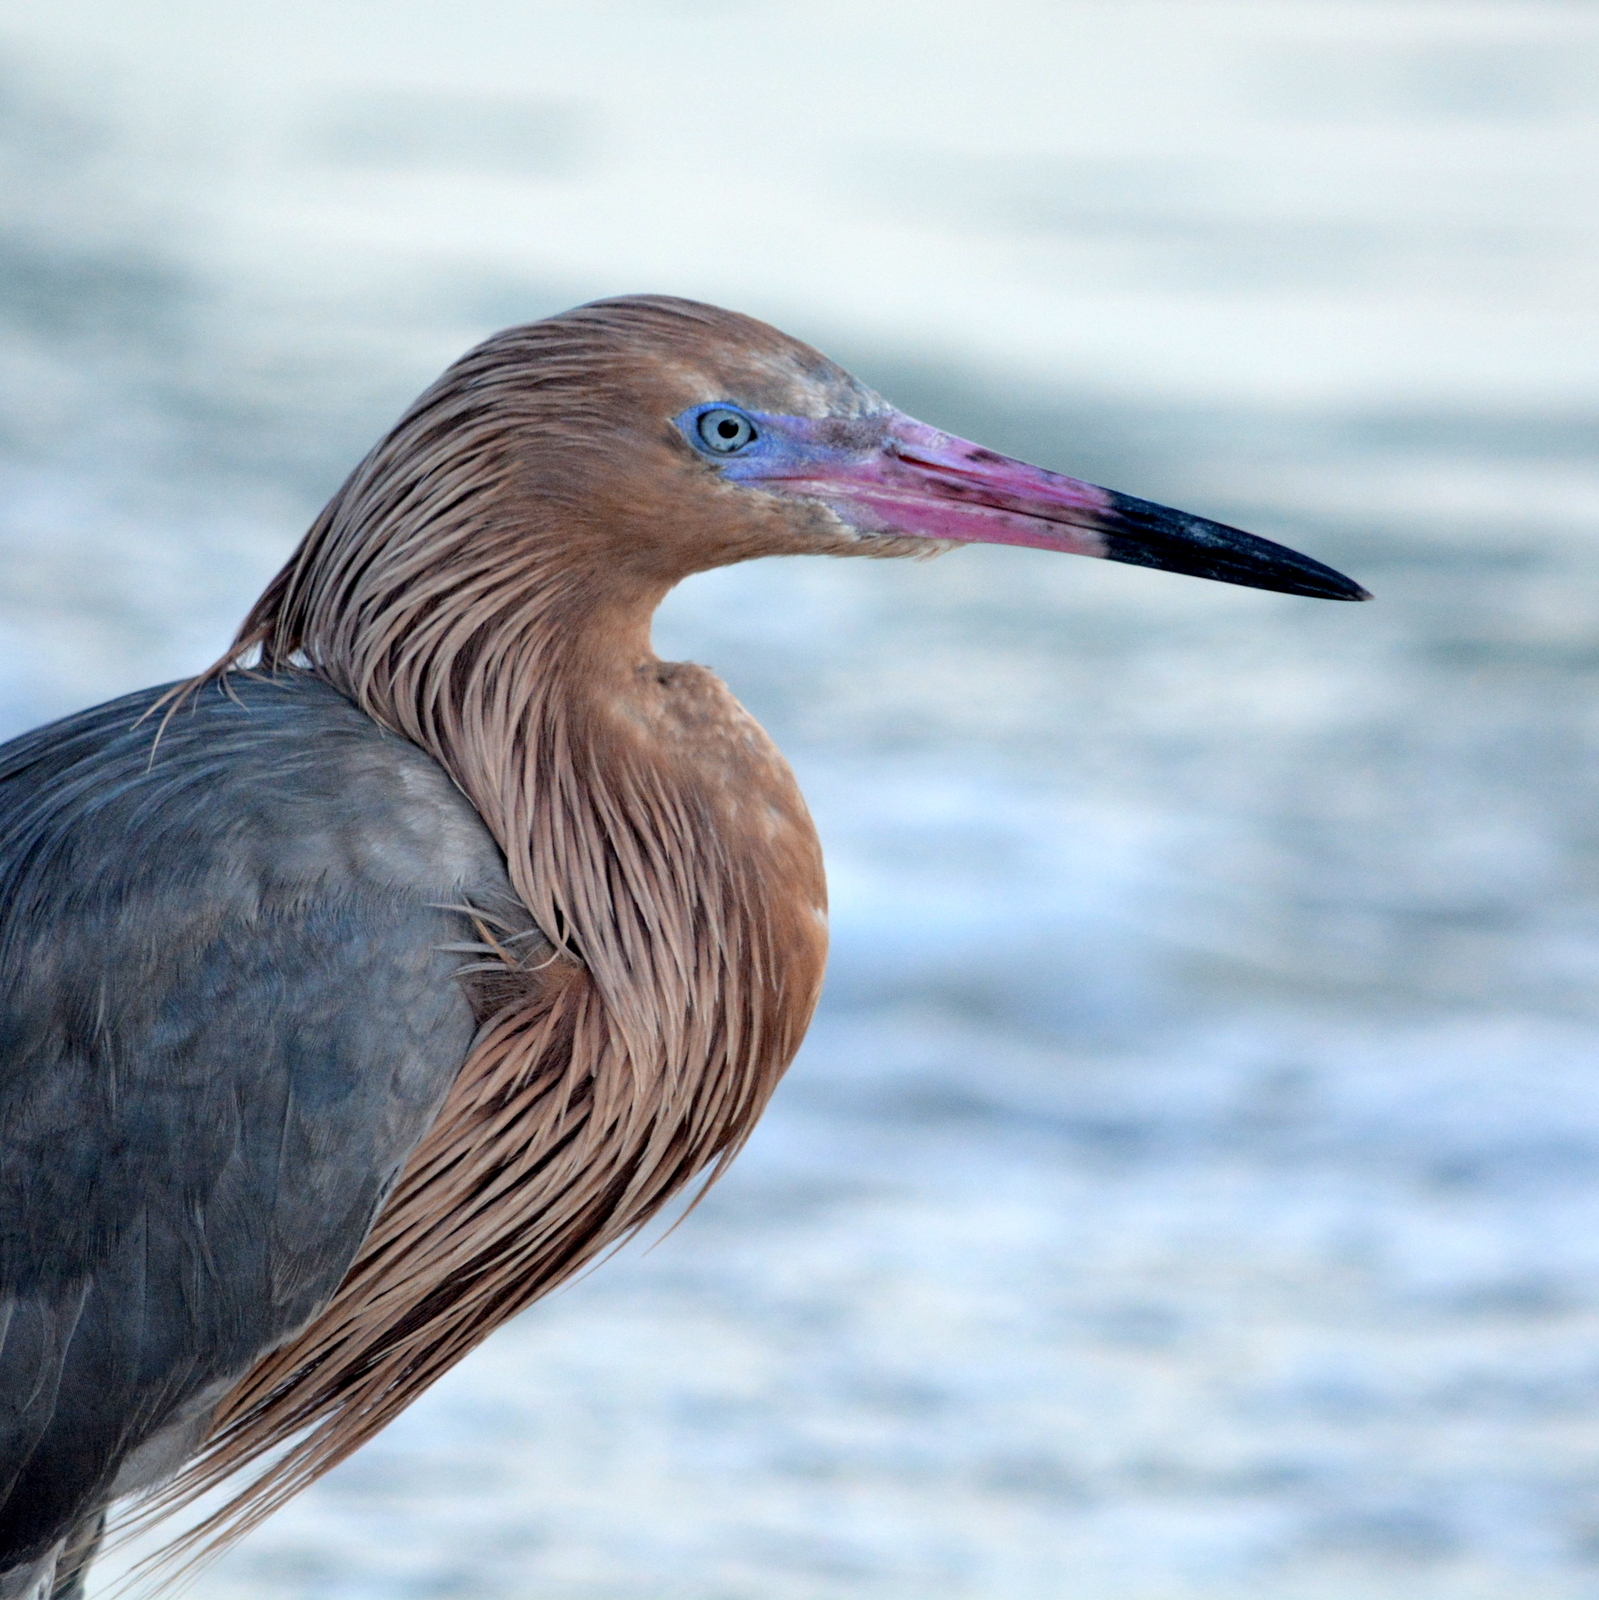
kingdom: Animalia
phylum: Chordata
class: Aves
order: Pelecaniformes
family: Ardeidae
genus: Egretta
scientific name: Egretta rufescens
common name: Reddish egret
